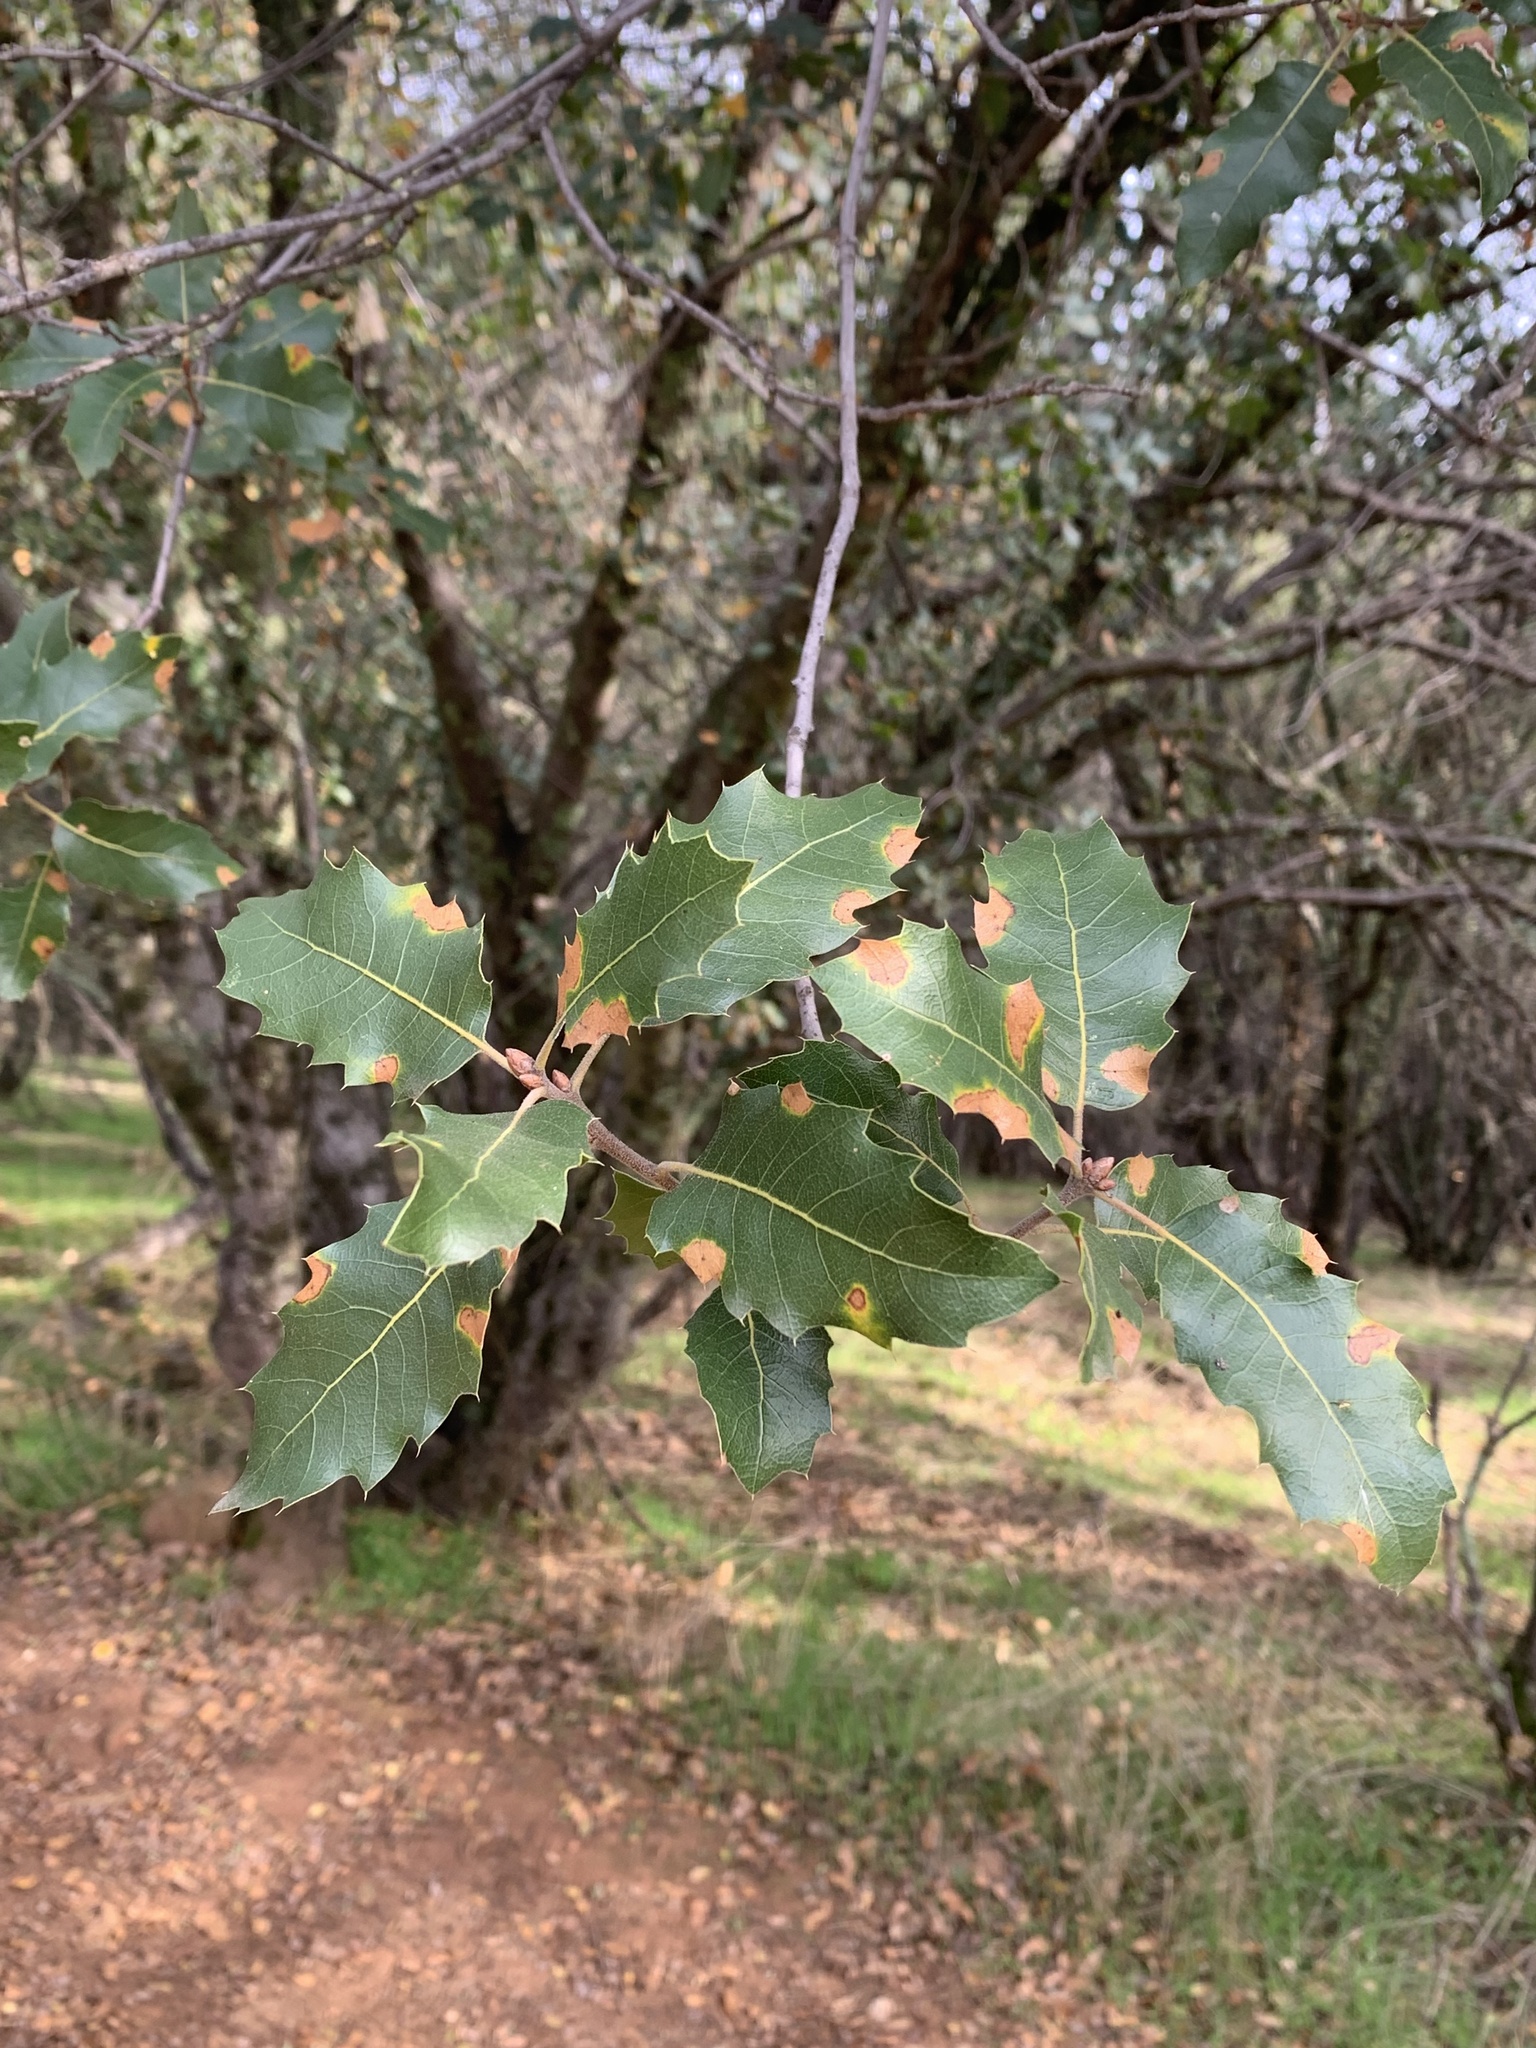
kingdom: Plantae
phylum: Tracheophyta
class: Magnoliopsida
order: Fagales
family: Fagaceae
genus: Quercus
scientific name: Quercus wislizeni
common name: Interior live oak
